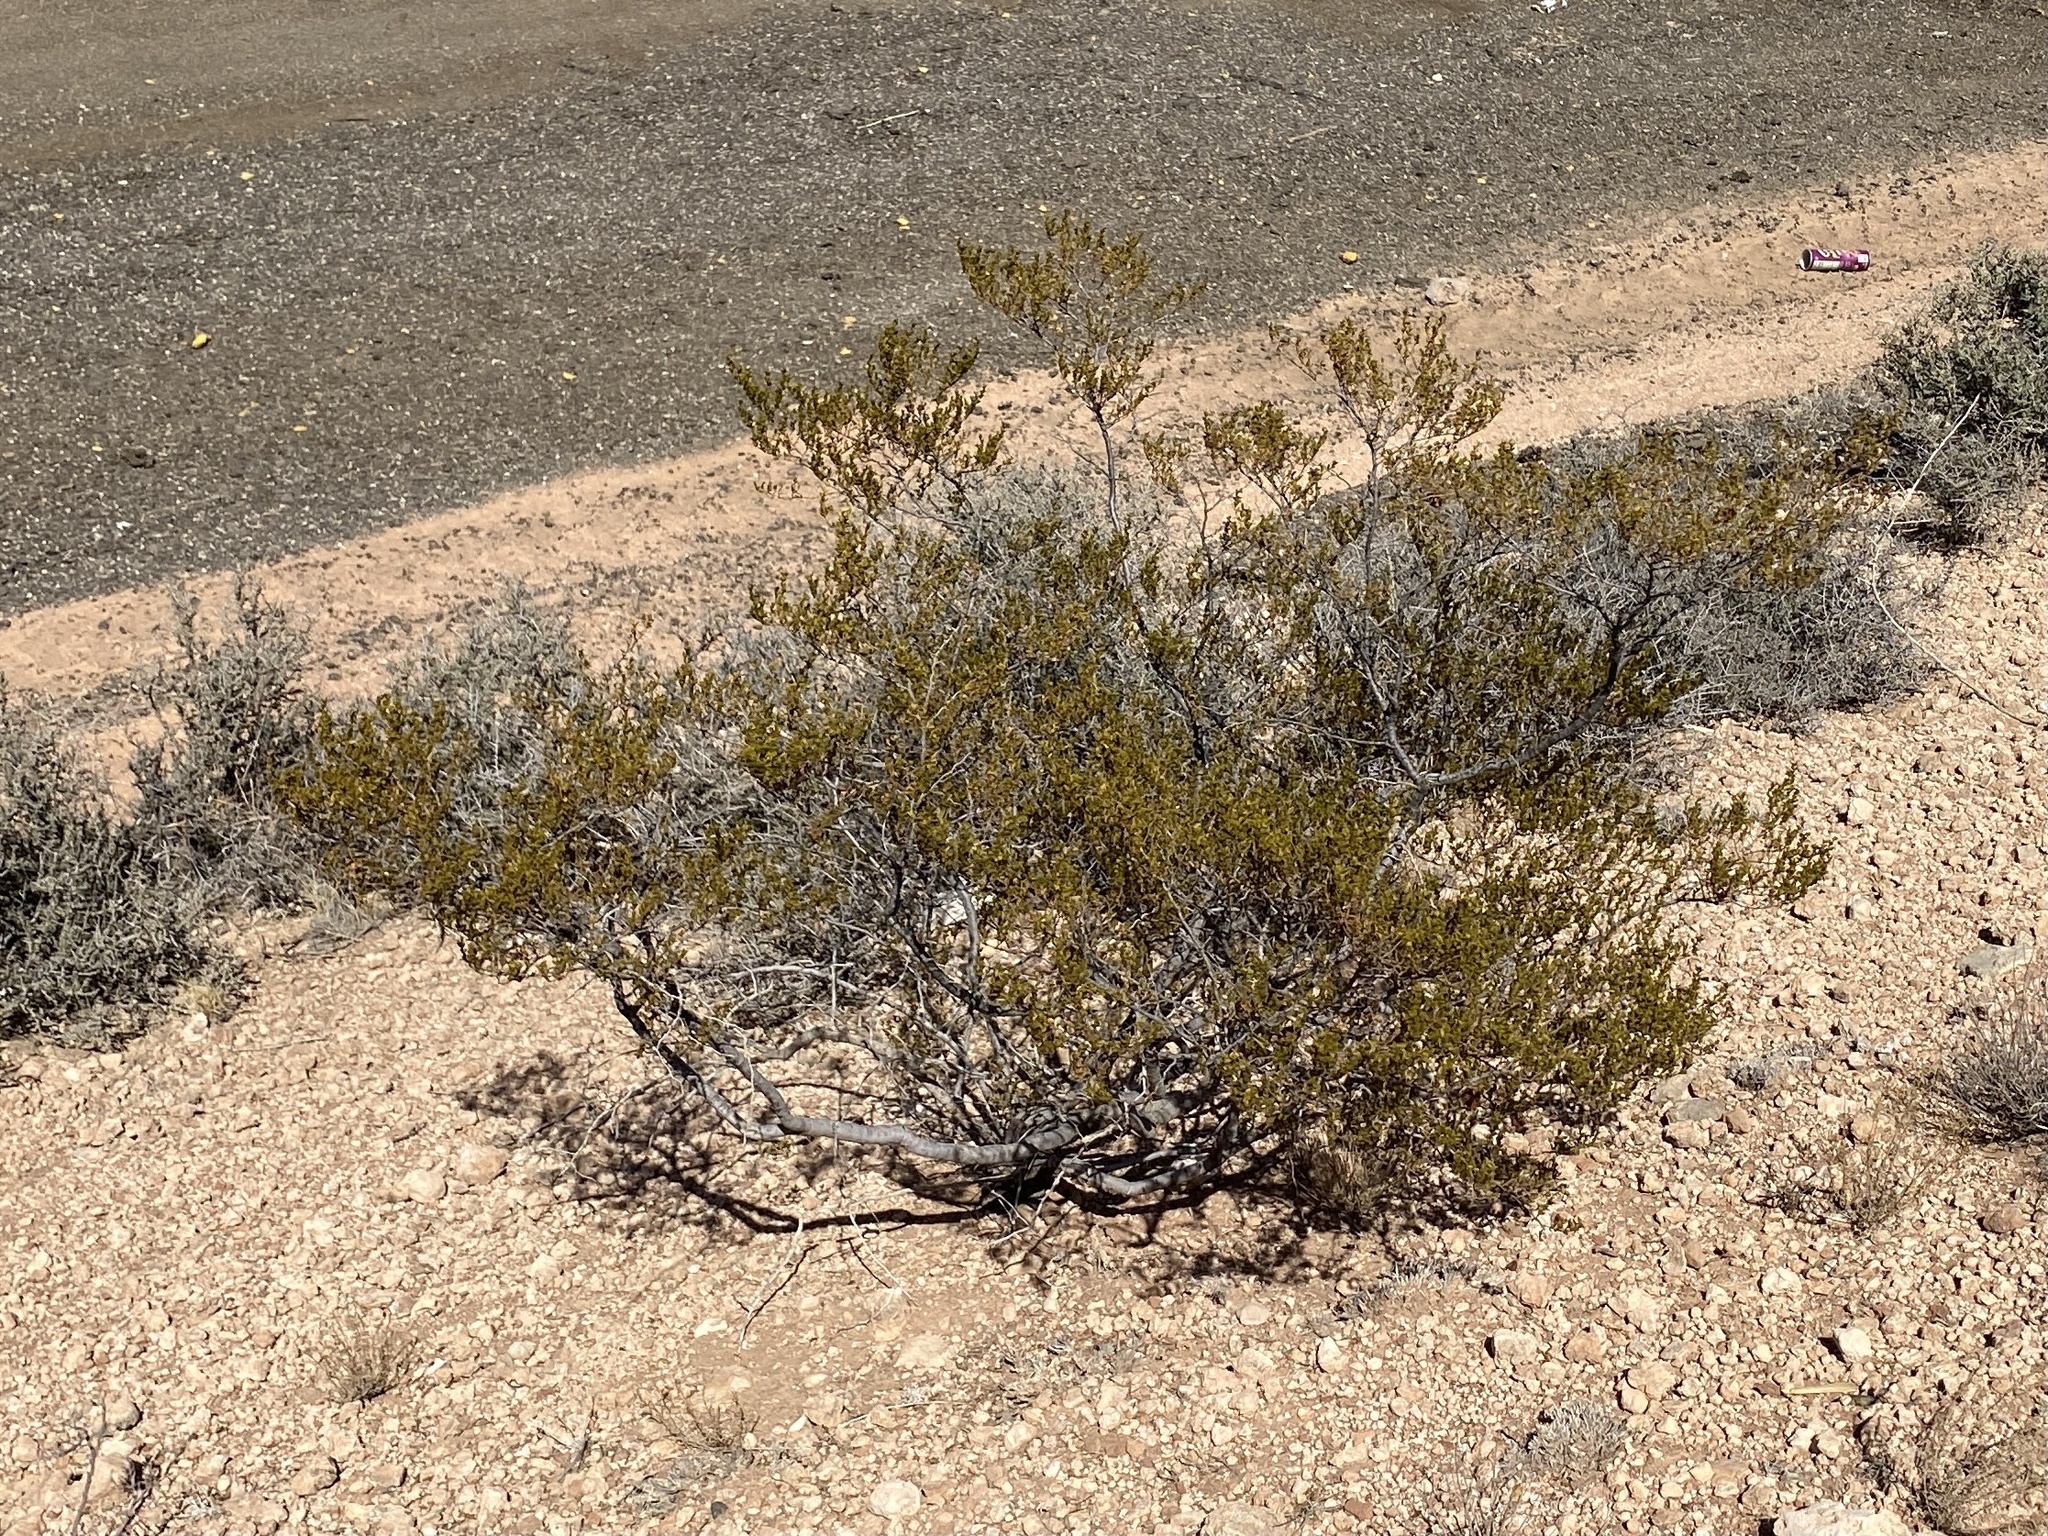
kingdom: Plantae
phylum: Tracheophyta
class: Magnoliopsida
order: Zygophyllales
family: Zygophyllaceae
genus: Larrea
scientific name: Larrea tridentata
